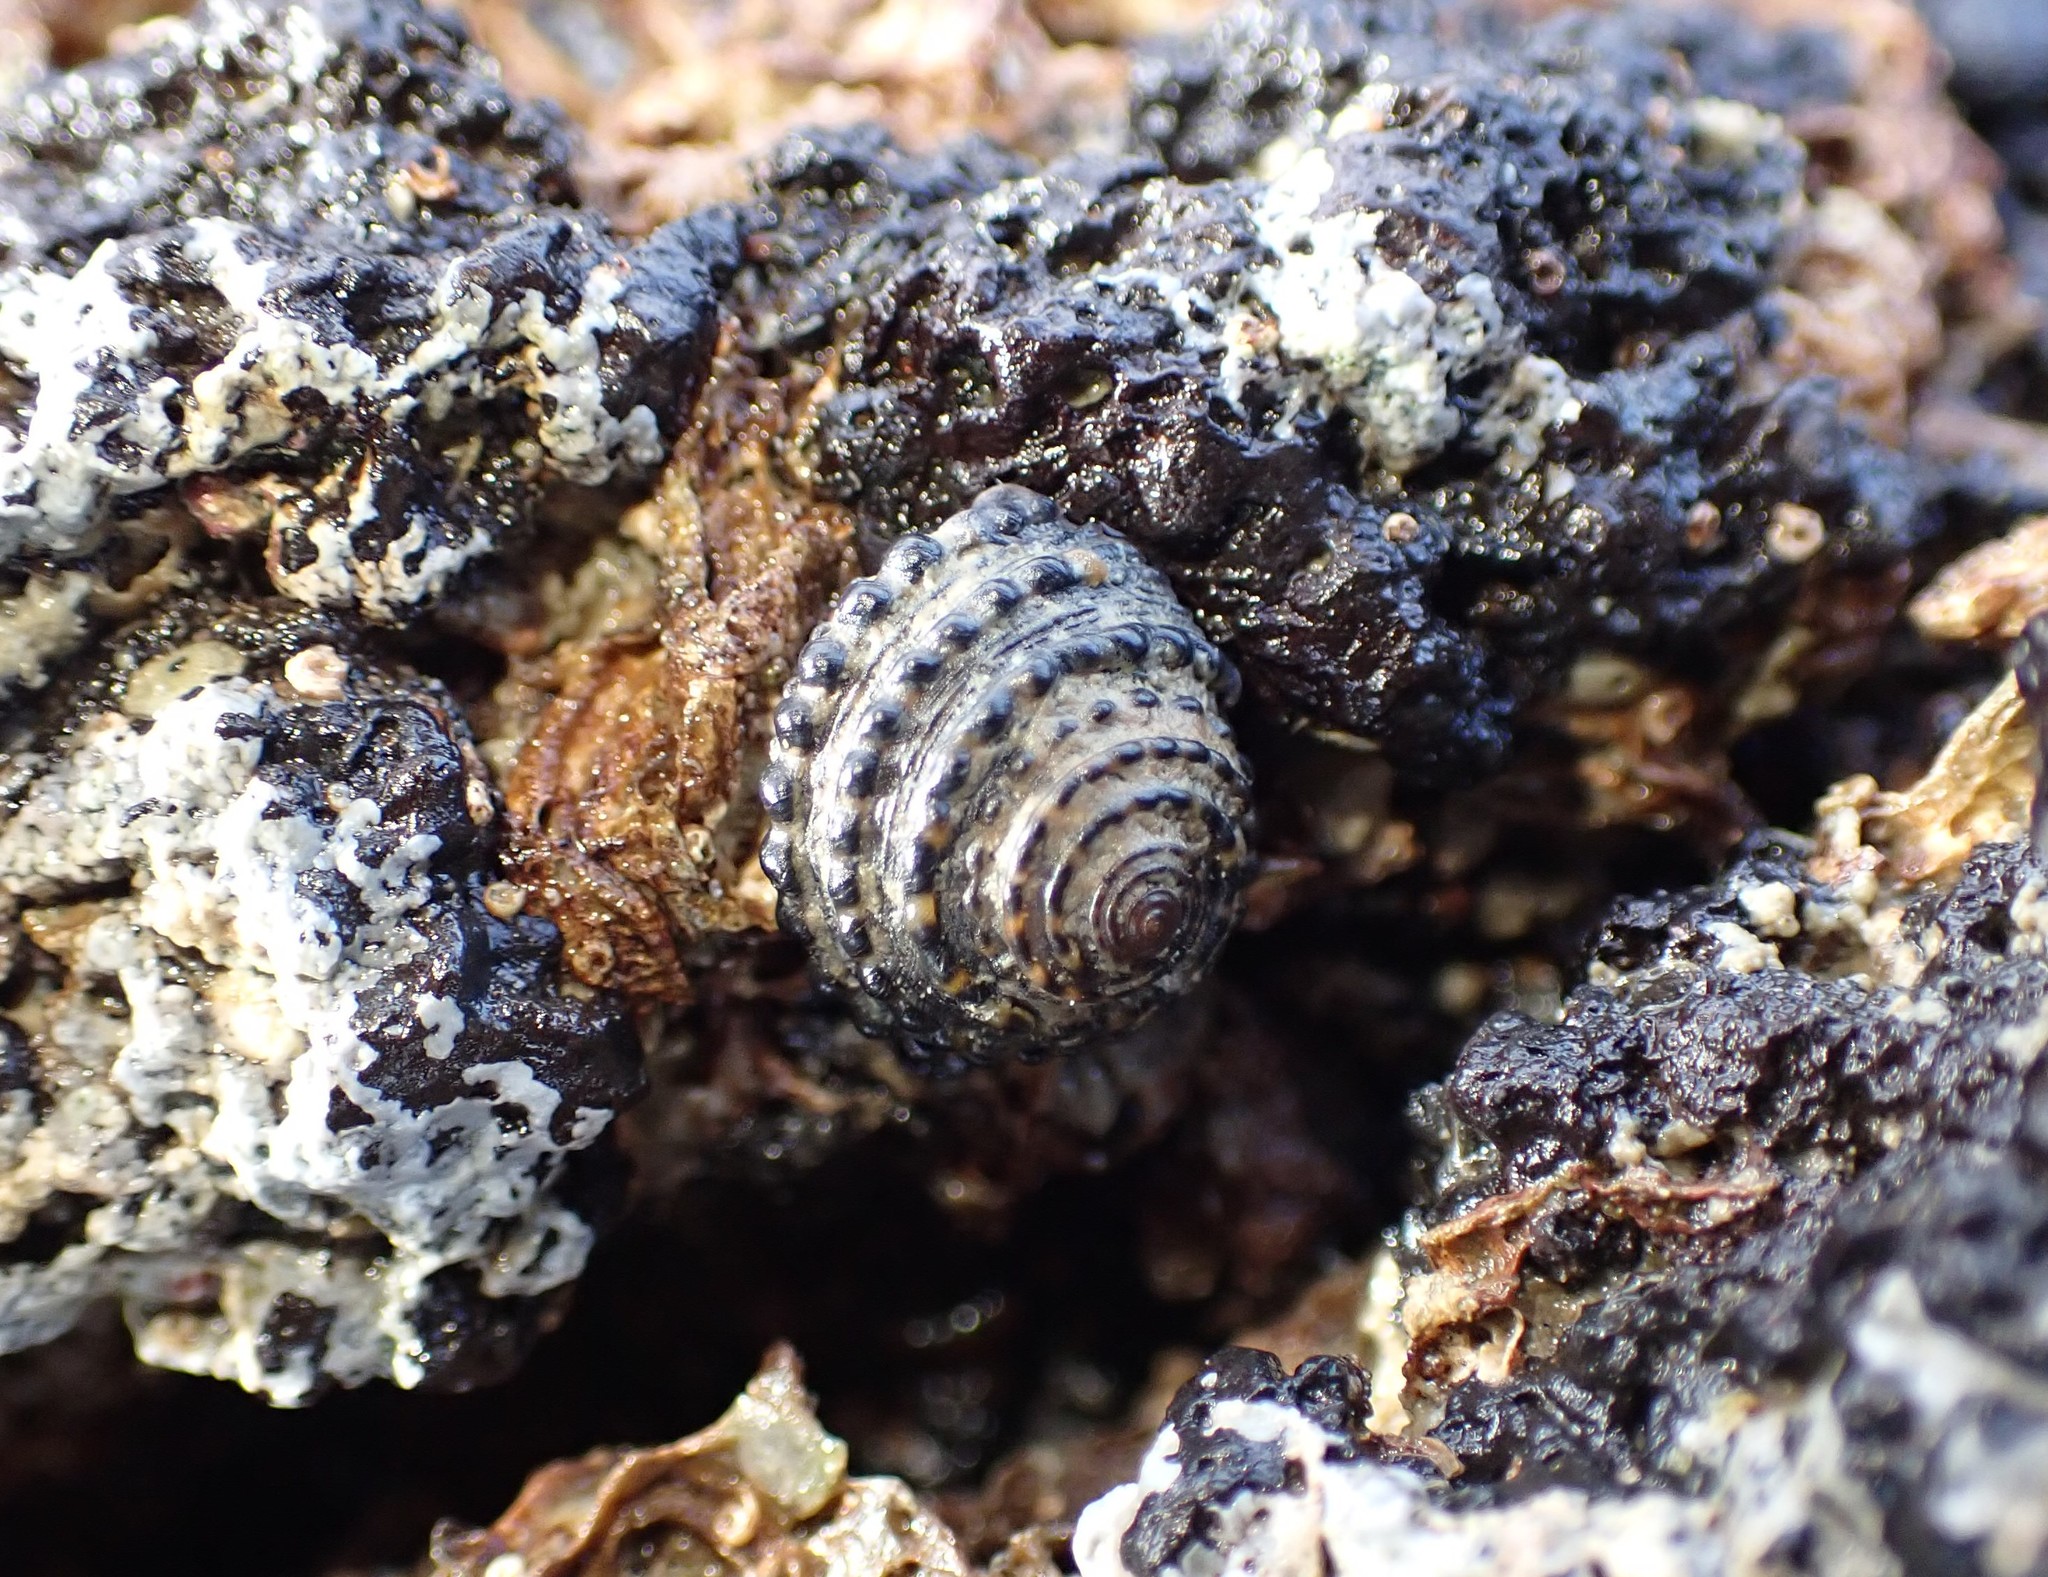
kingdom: Animalia
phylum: Mollusca
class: Gastropoda
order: Trochida
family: Trochidae
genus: Diloma
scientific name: Diloma bicanaliculatum
